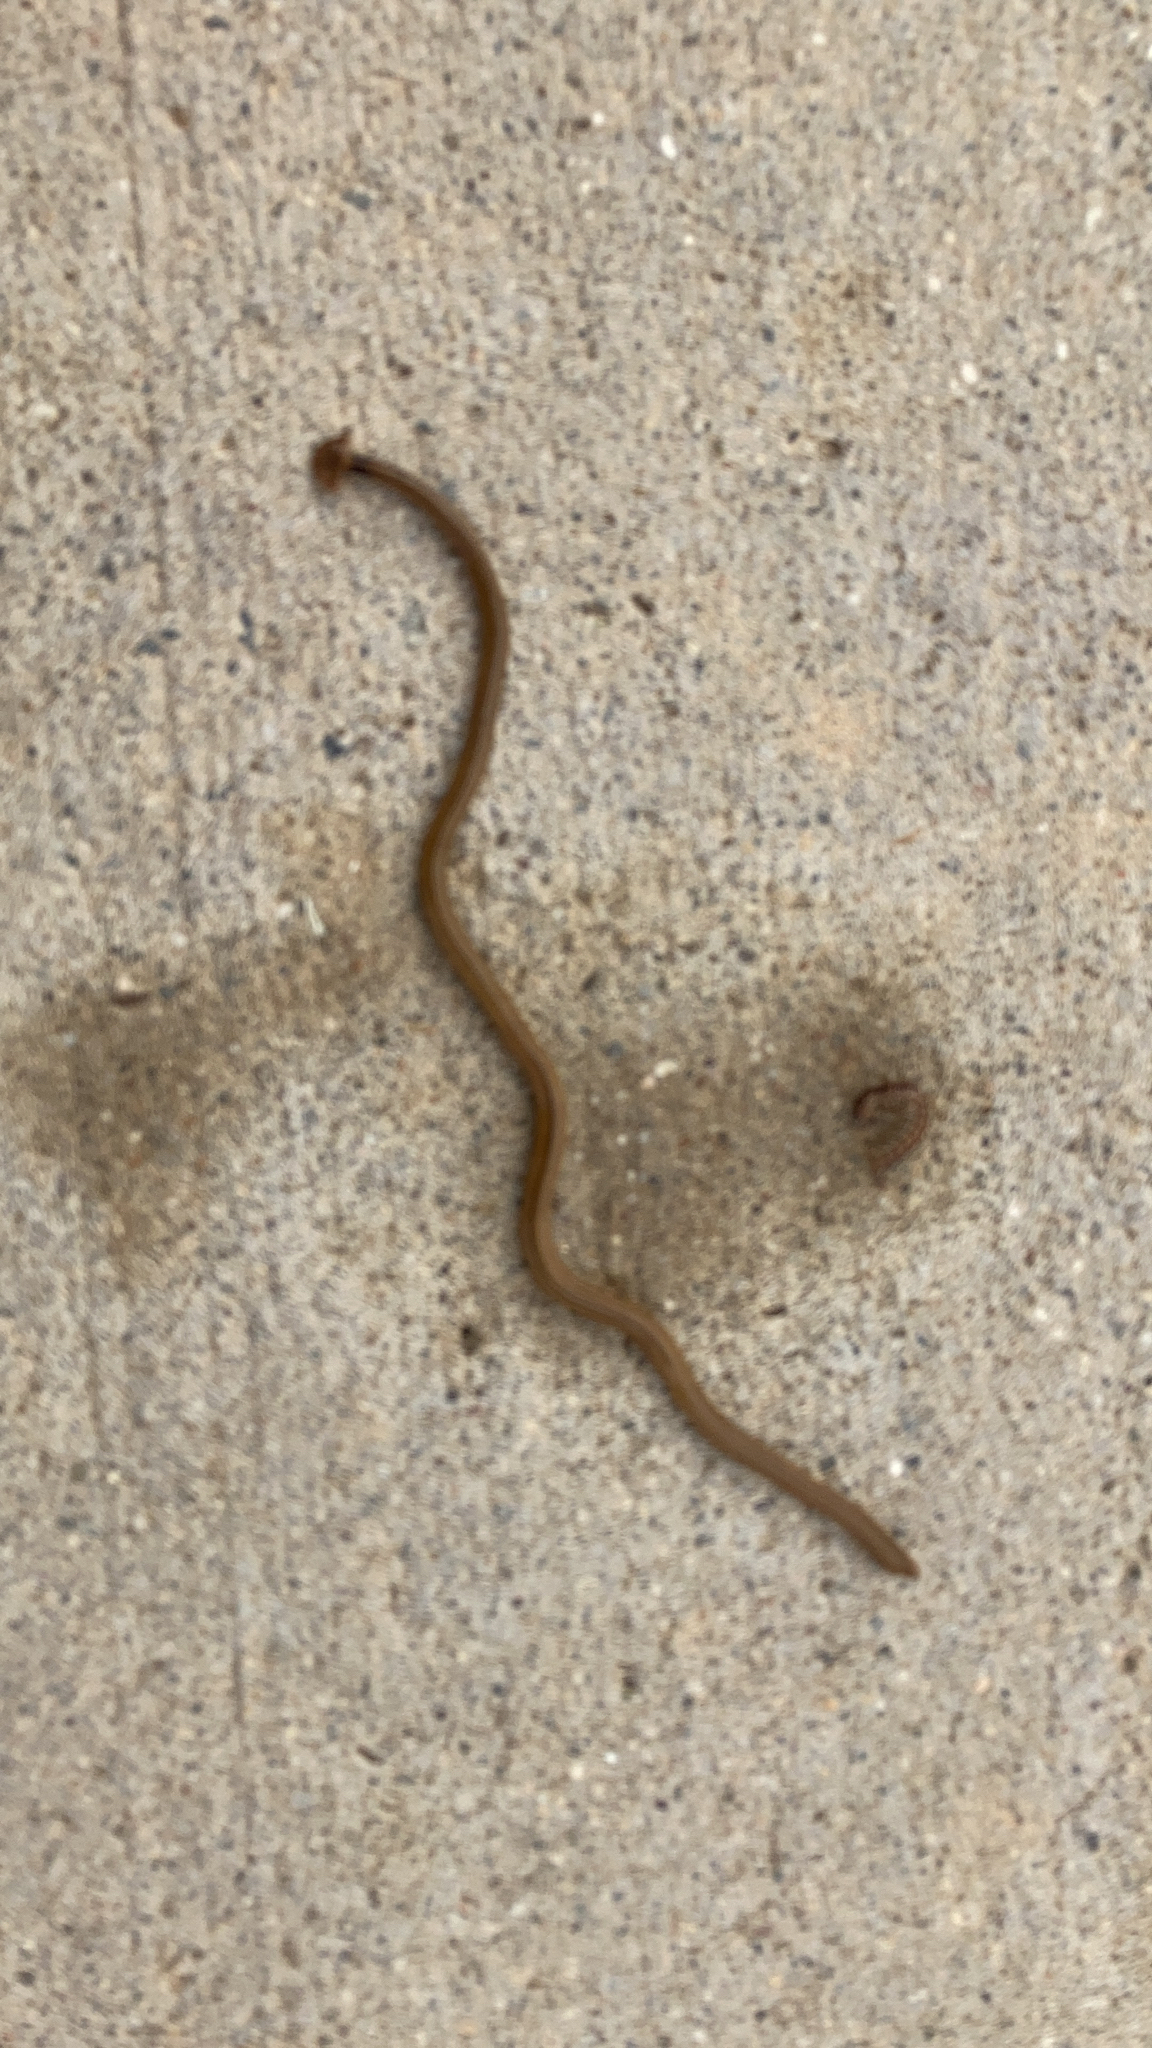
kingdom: Animalia
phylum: Platyhelminthes
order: Tricladida
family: Geoplanidae
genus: Bipalium
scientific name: Bipalium kewense
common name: Hammerhead flatworm
